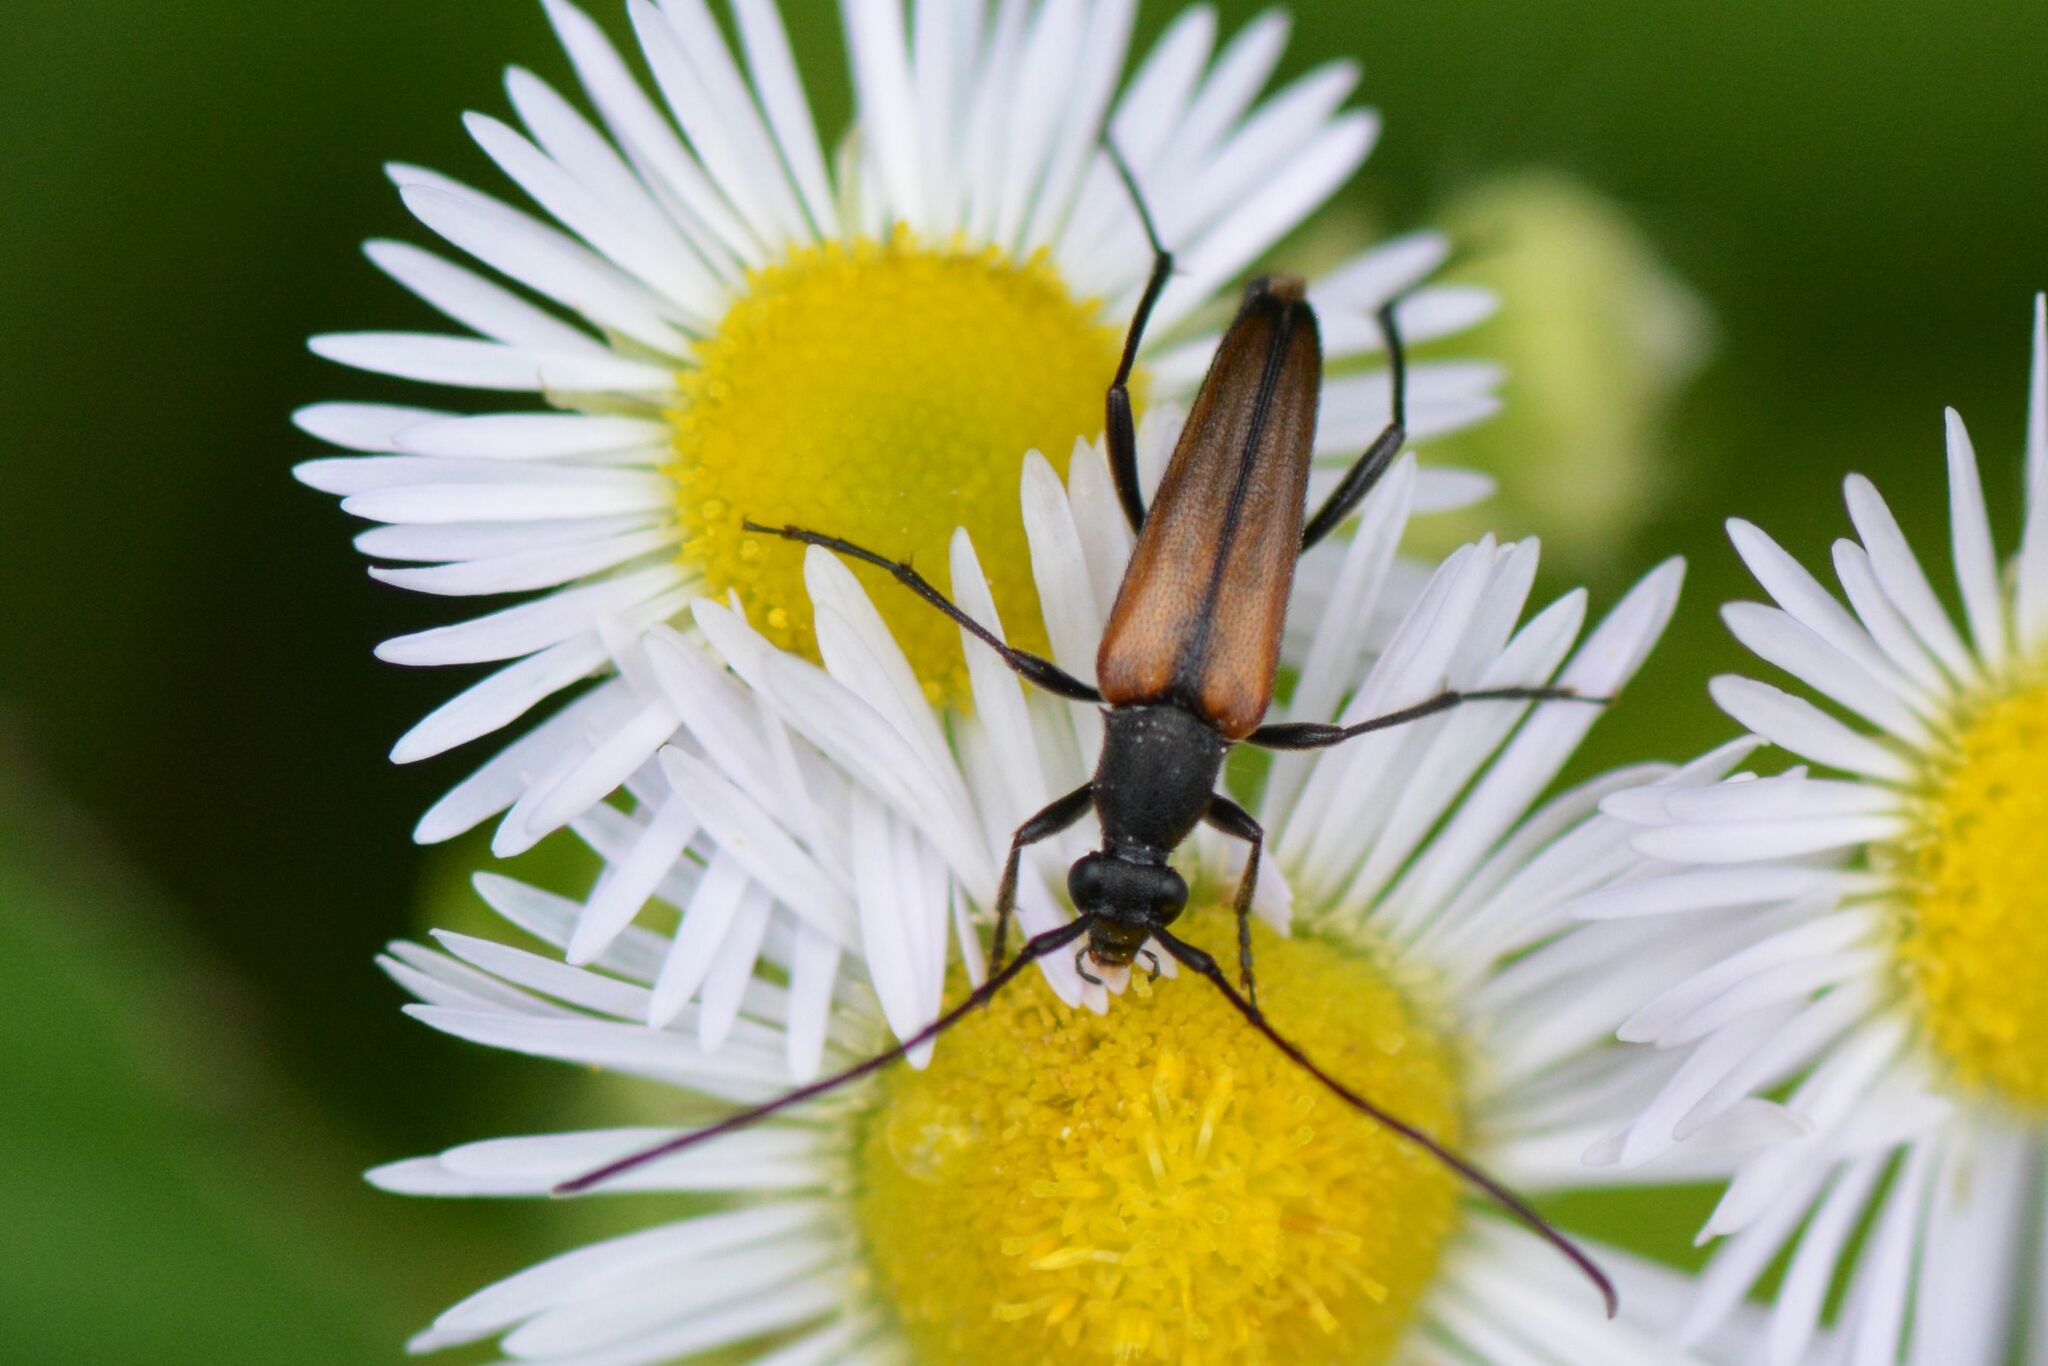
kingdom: Animalia
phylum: Arthropoda
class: Insecta
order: Coleoptera
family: Cerambycidae
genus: Stenurella
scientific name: Stenurella melanura
